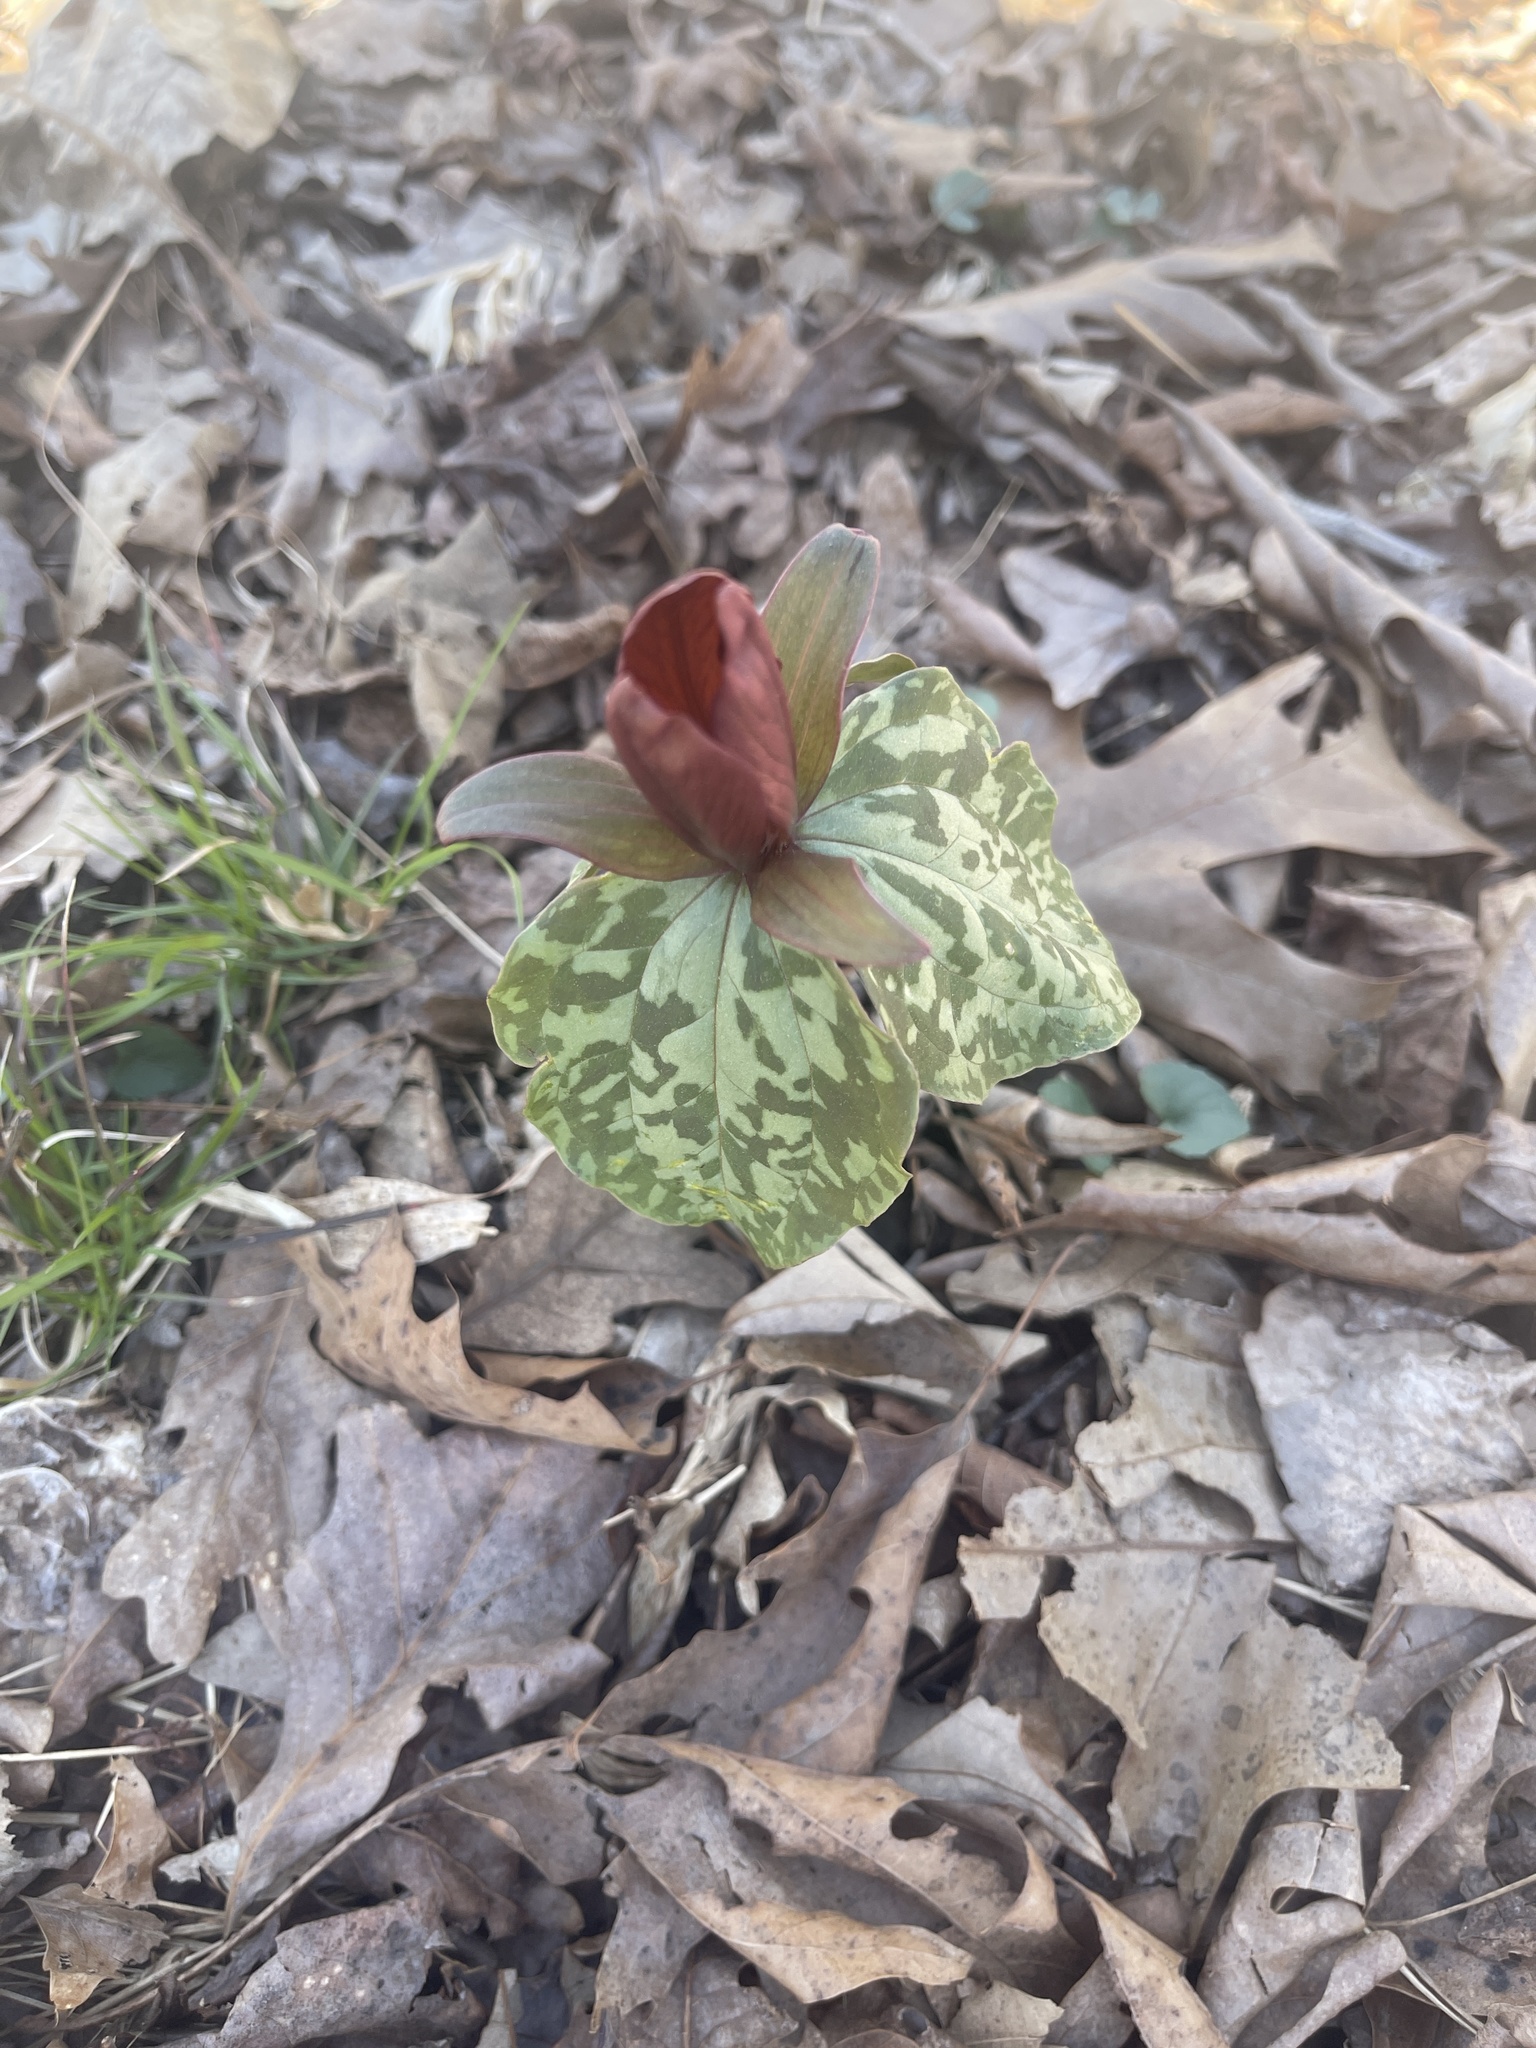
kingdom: Plantae
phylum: Tracheophyta
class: Liliopsida
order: Liliales
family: Melanthiaceae
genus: Trillium
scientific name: Trillium cuneatum
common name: Cuneate trillium
